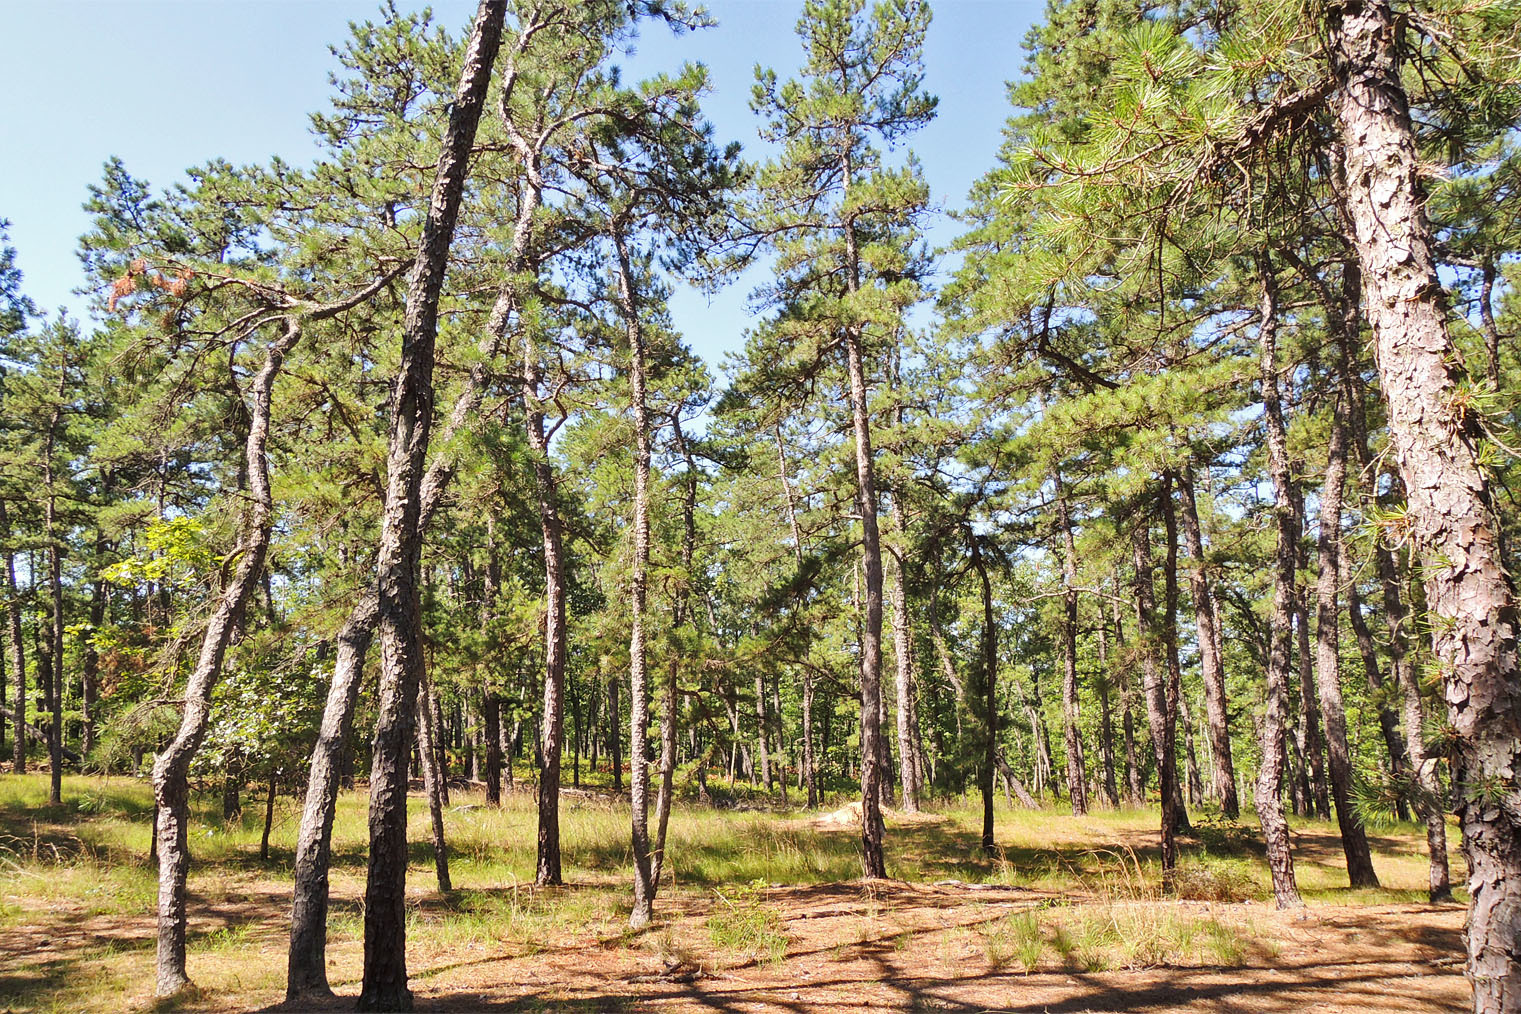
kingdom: Plantae
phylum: Tracheophyta
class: Pinopsida
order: Pinales
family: Pinaceae
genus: Pinus
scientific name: Pinus rigida
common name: Pitch pine
